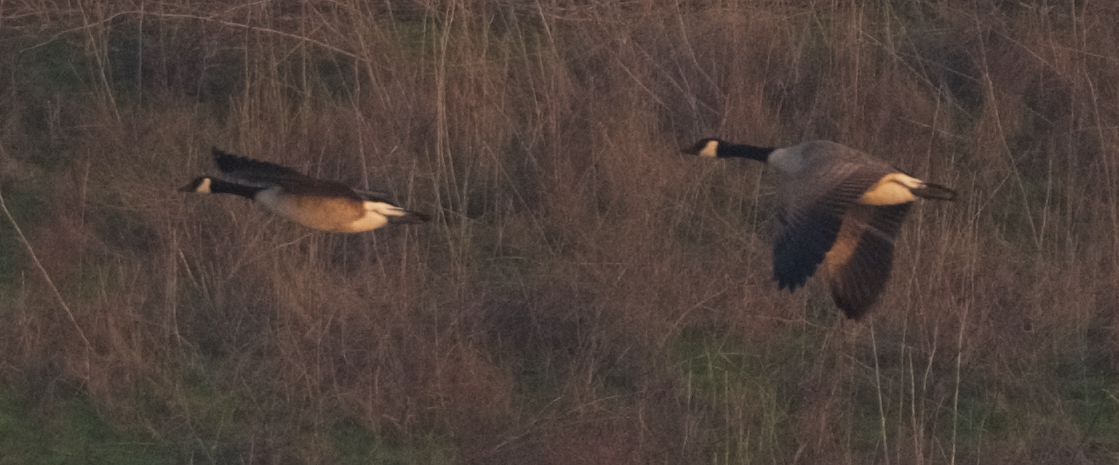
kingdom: Animalia
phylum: Chordata
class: Aves
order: Anseriformes
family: Anatidae
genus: Branta
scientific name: Branta canadensis
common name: Canada goose
